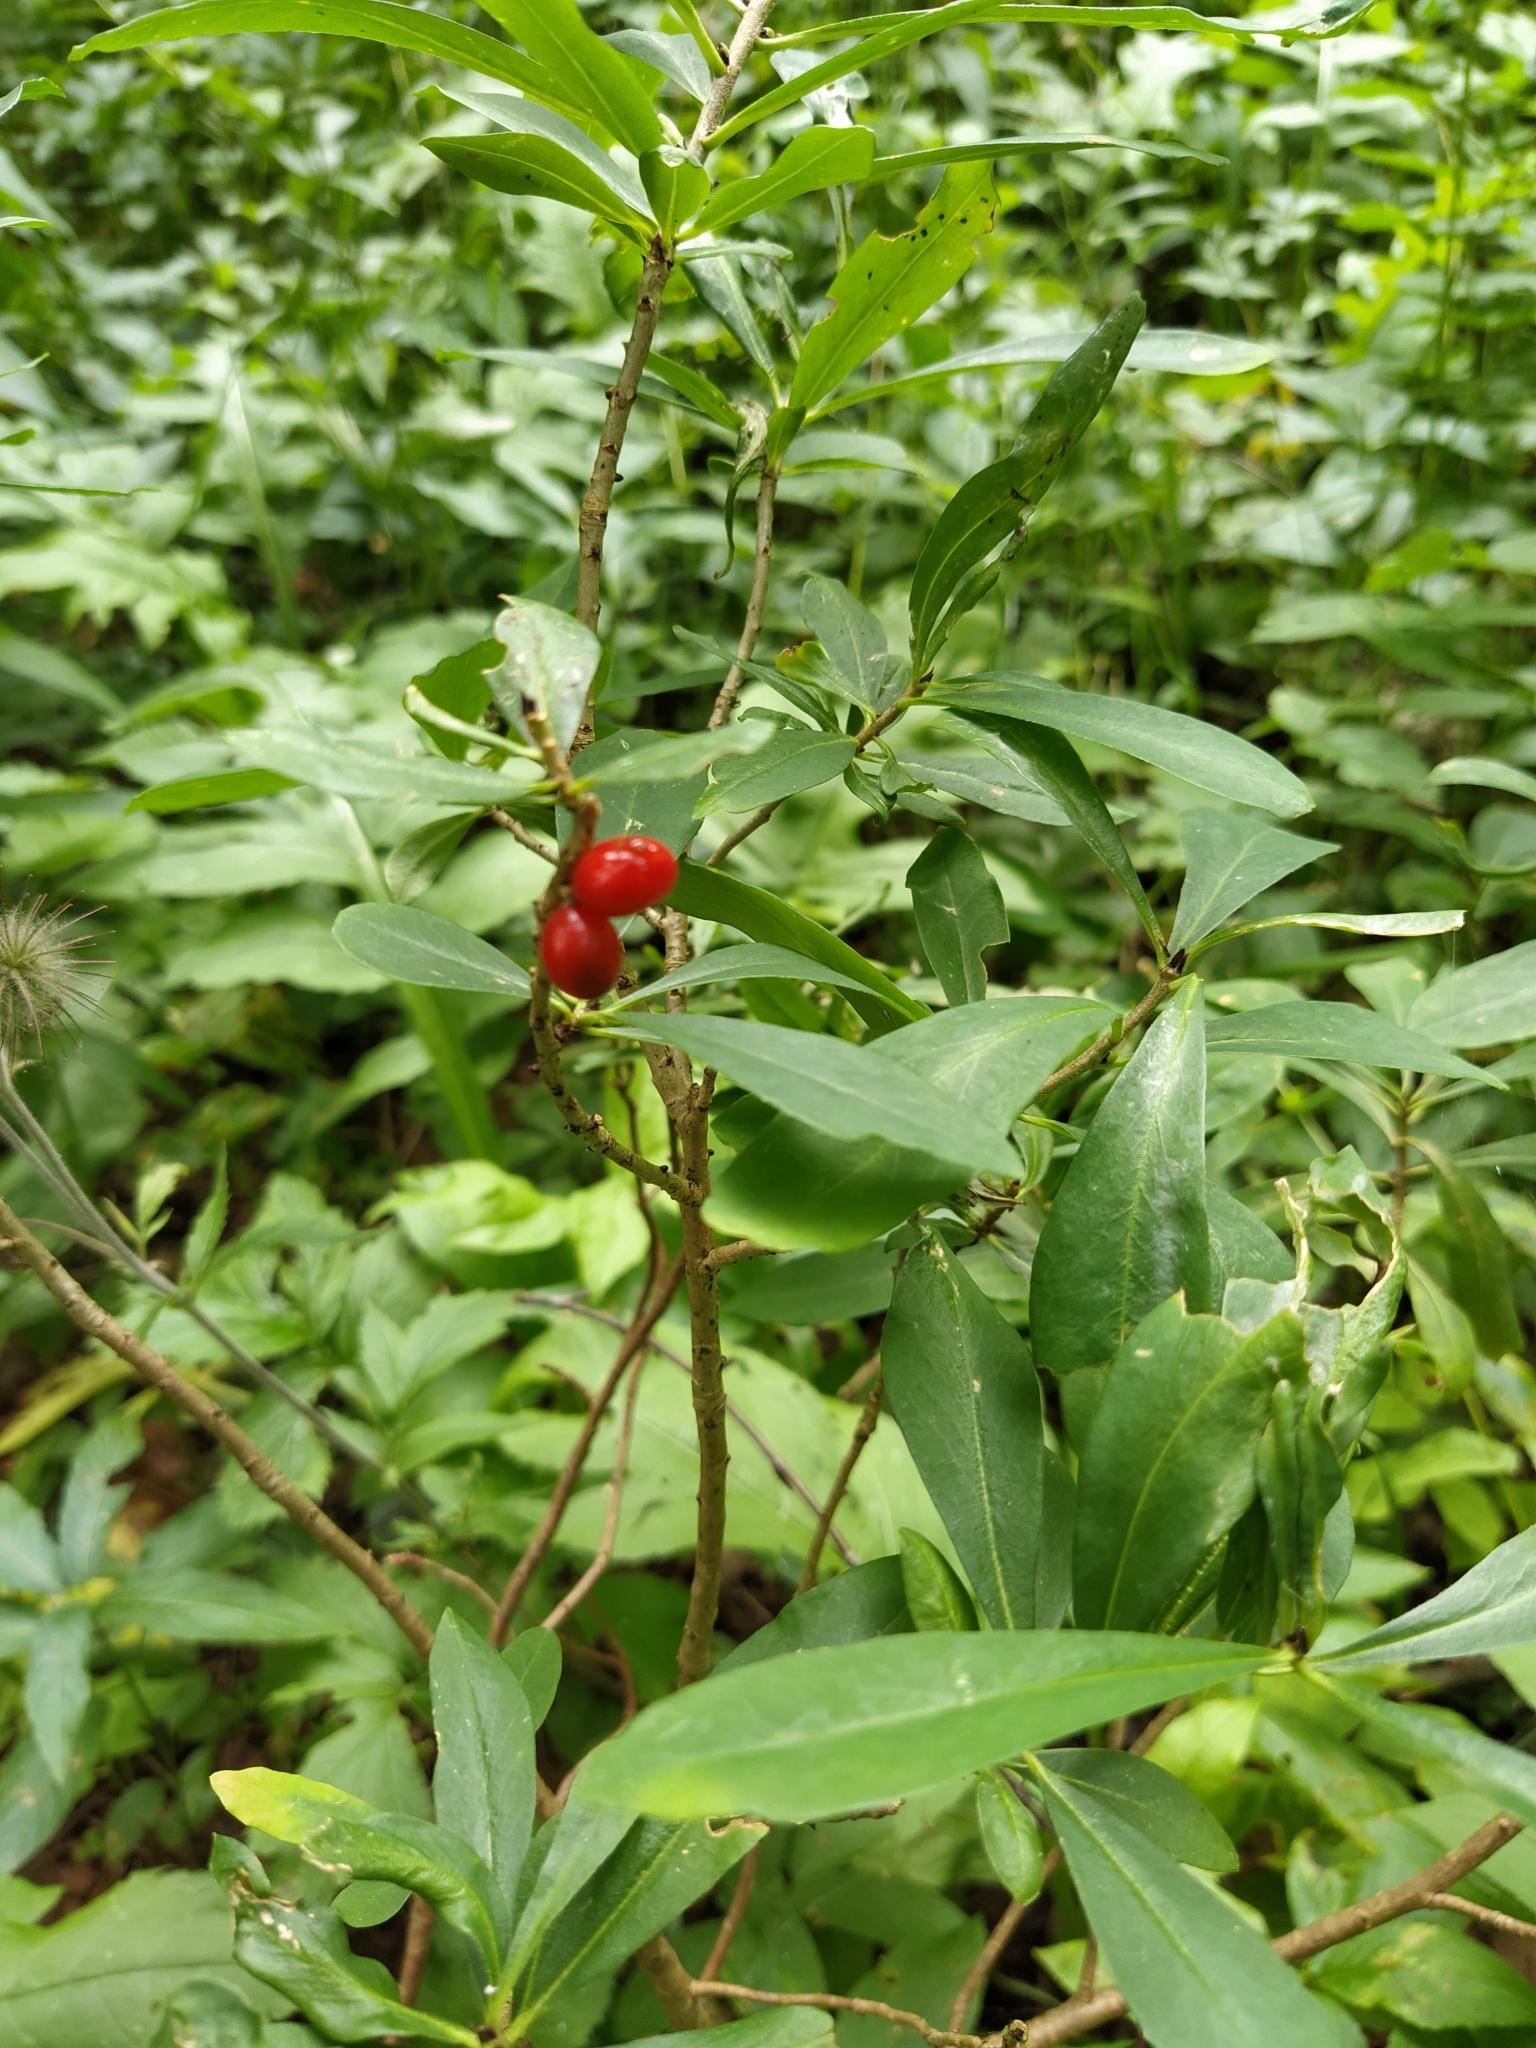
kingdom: Plantae
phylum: Tracheophyta
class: Magnoliopsida
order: Malvales
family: Thymelaeaceae
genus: Daphne
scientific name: Daphne mezereum
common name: Mezereon
